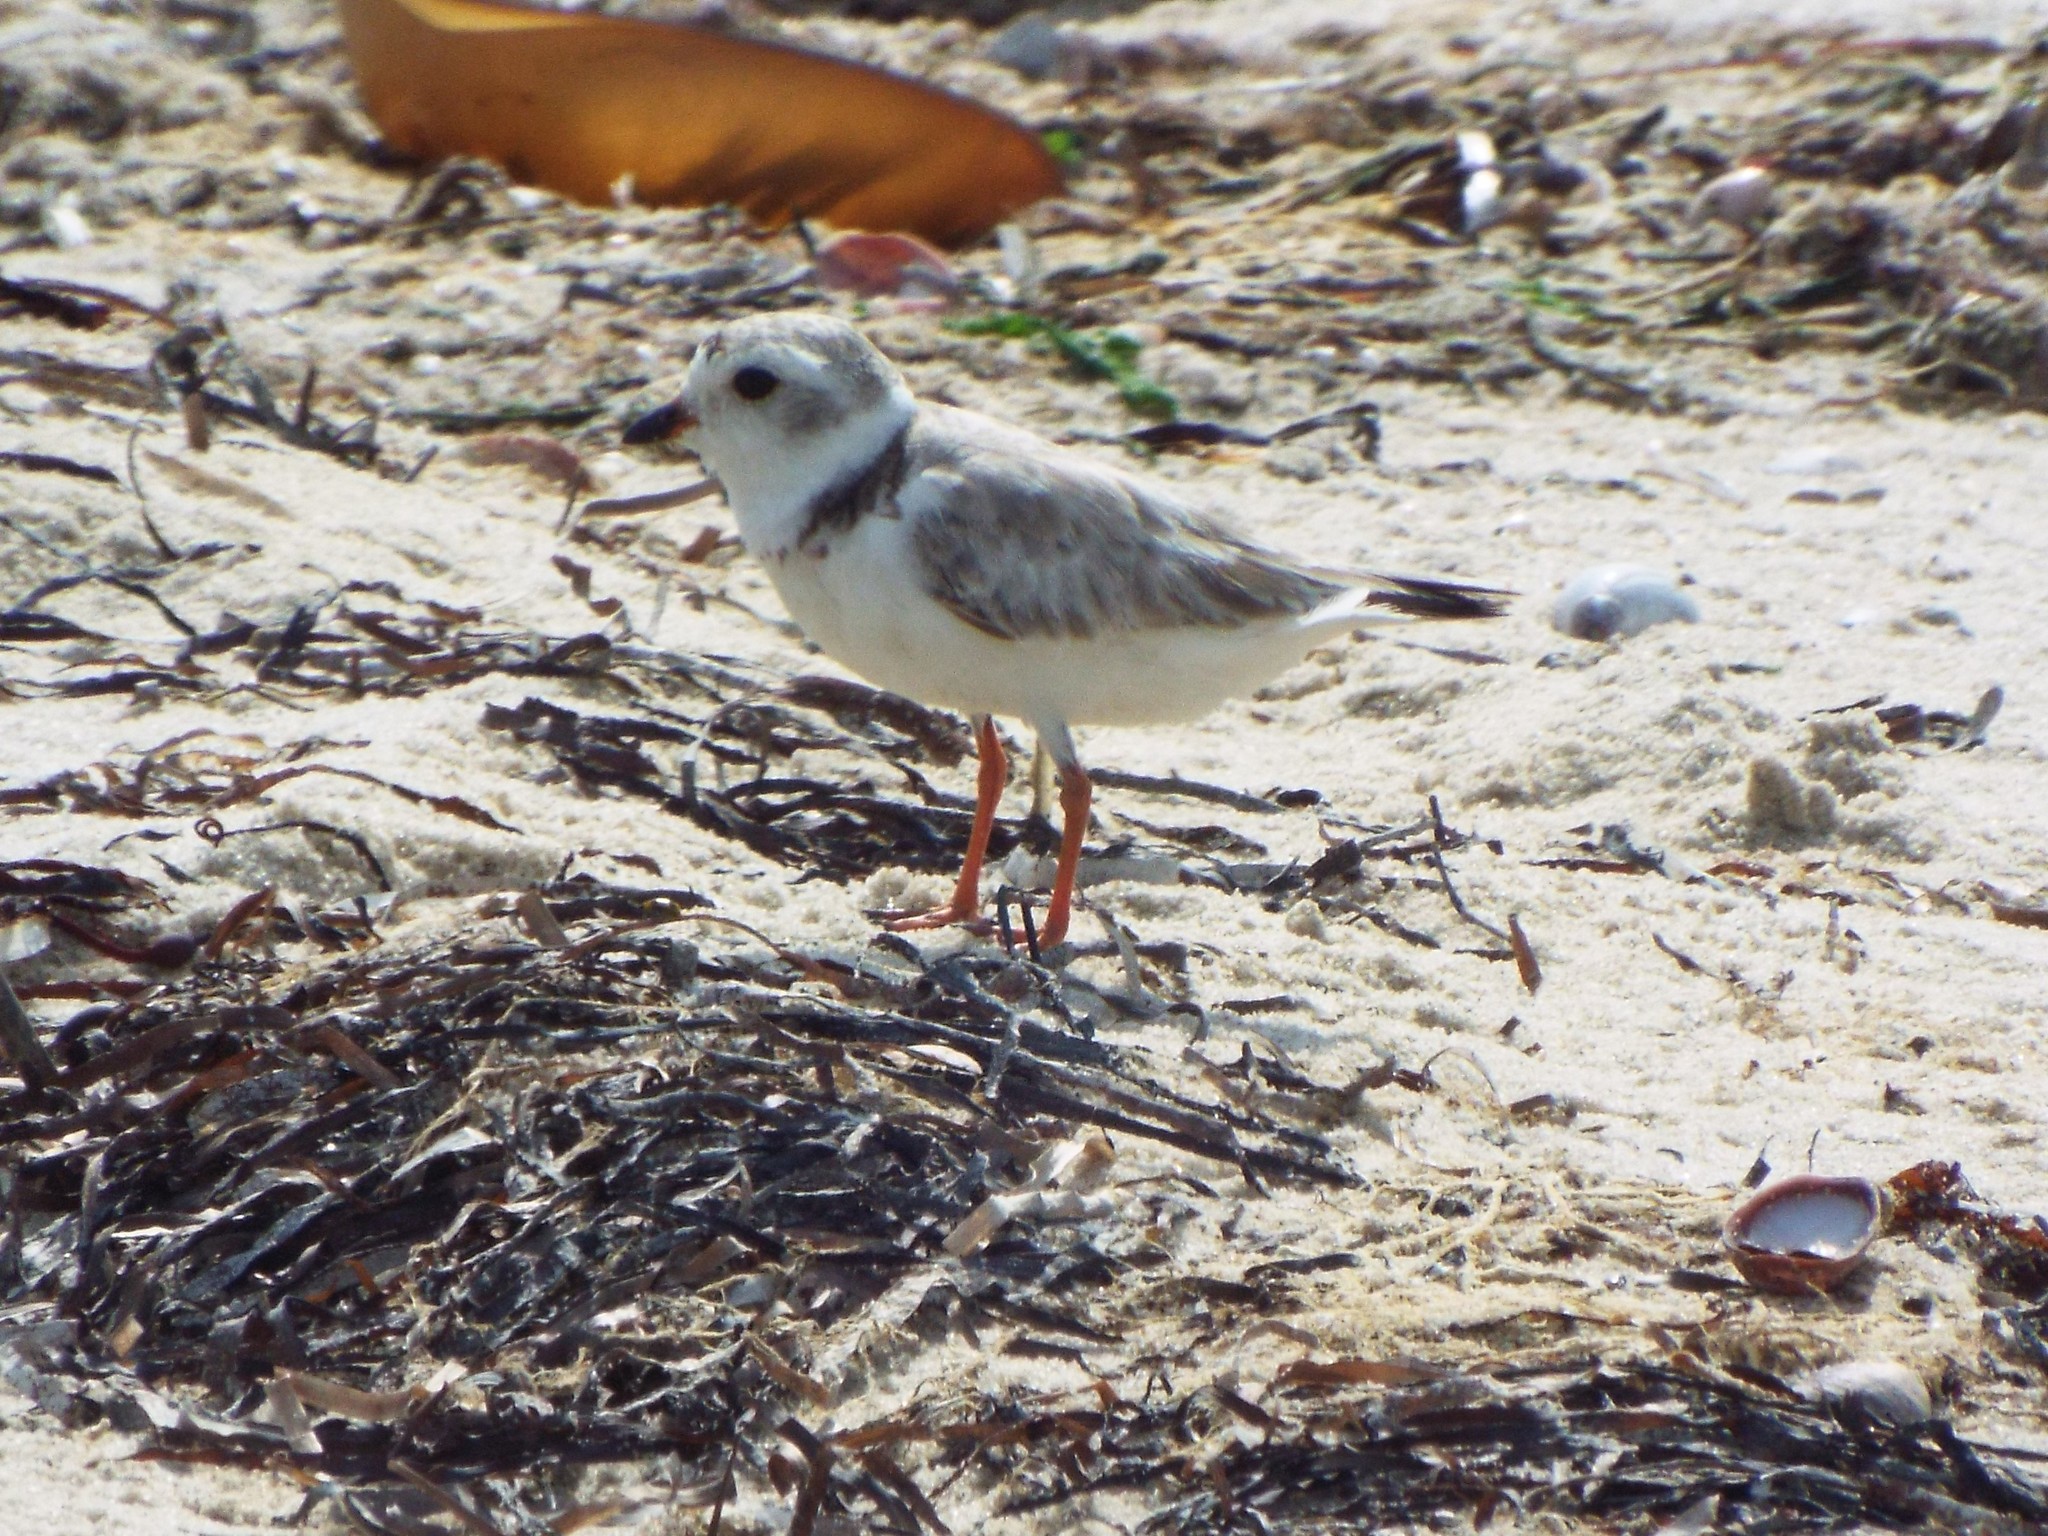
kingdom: Animalia
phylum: Chordata
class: Aves
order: Charadriiformes
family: Charadriidae
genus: Charadrius
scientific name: Charadrius melodus
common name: Piping plover
